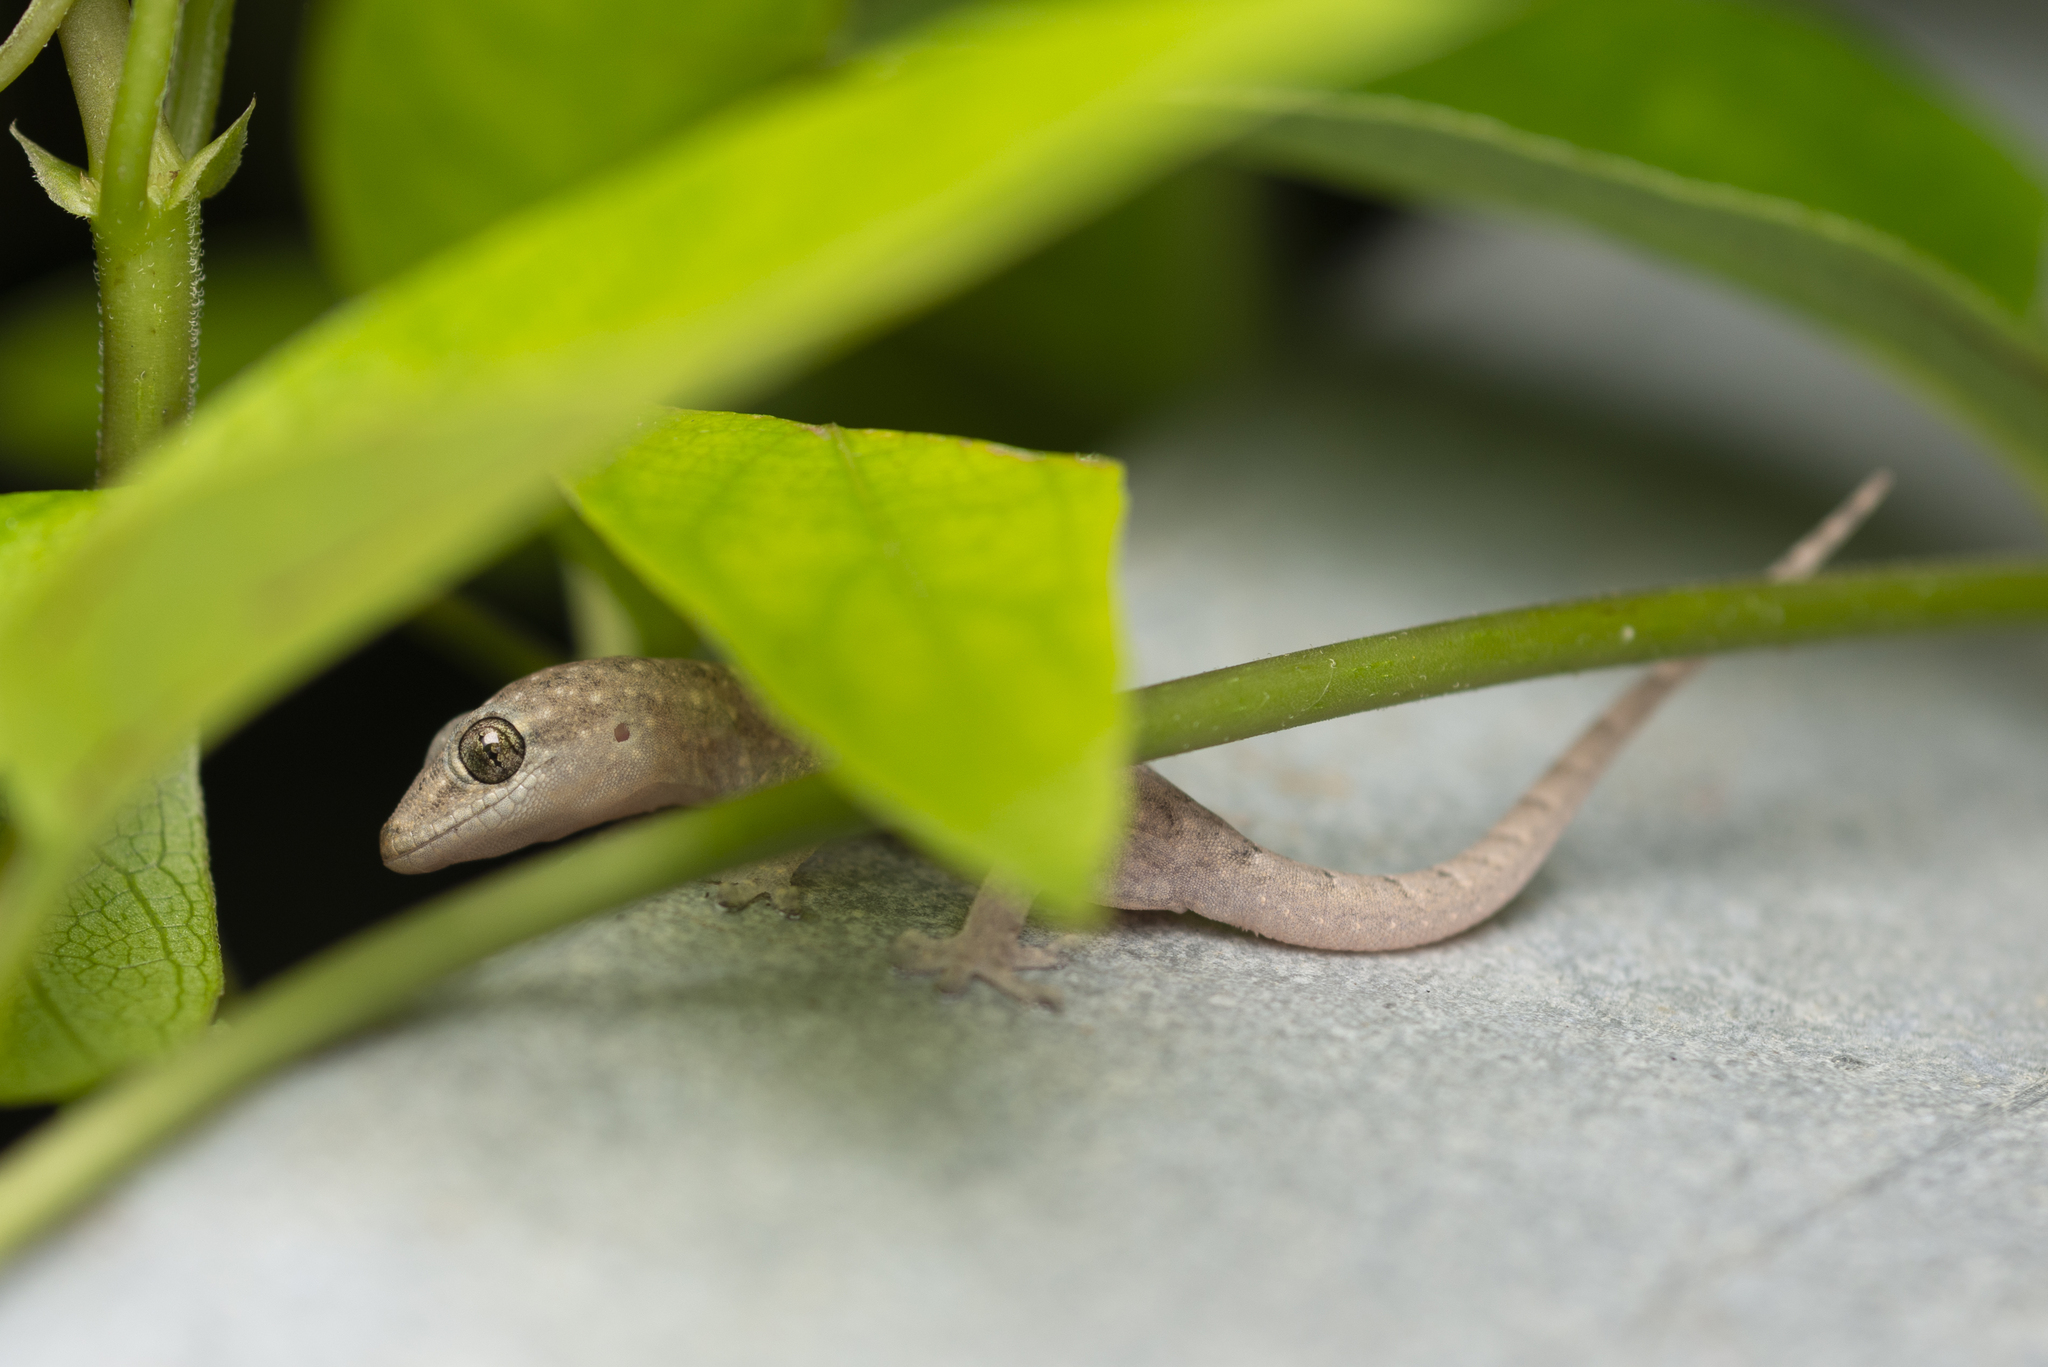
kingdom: Animalia
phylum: Chordata
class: Squamata
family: Gekkonidae
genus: Hemidactylus
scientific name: Hemidactylus bowringii
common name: Oriental leaf-toed gecko
